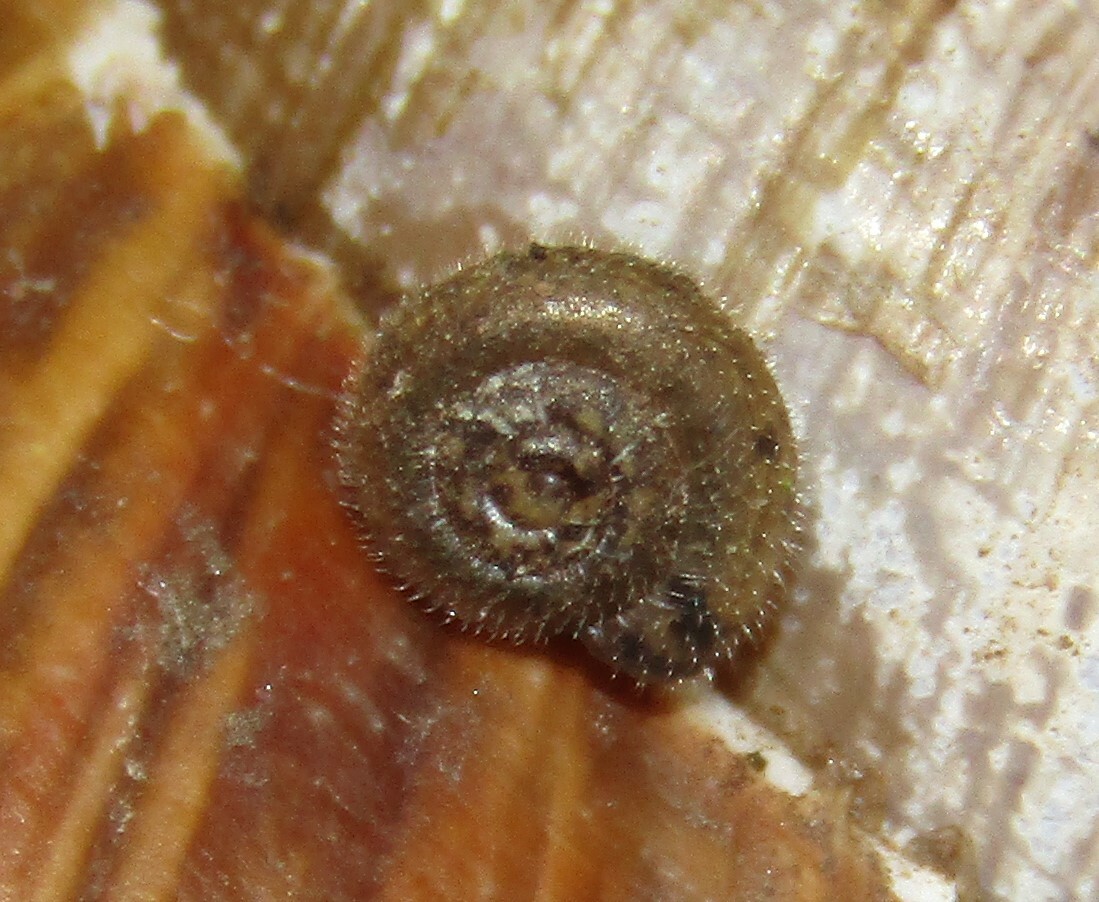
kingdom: Animalia
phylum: Mollusca
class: Gastropoda
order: Stylommatophora
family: Hygromiidae
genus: Trochulus
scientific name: Trochulus hispidus
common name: Hairy snail
